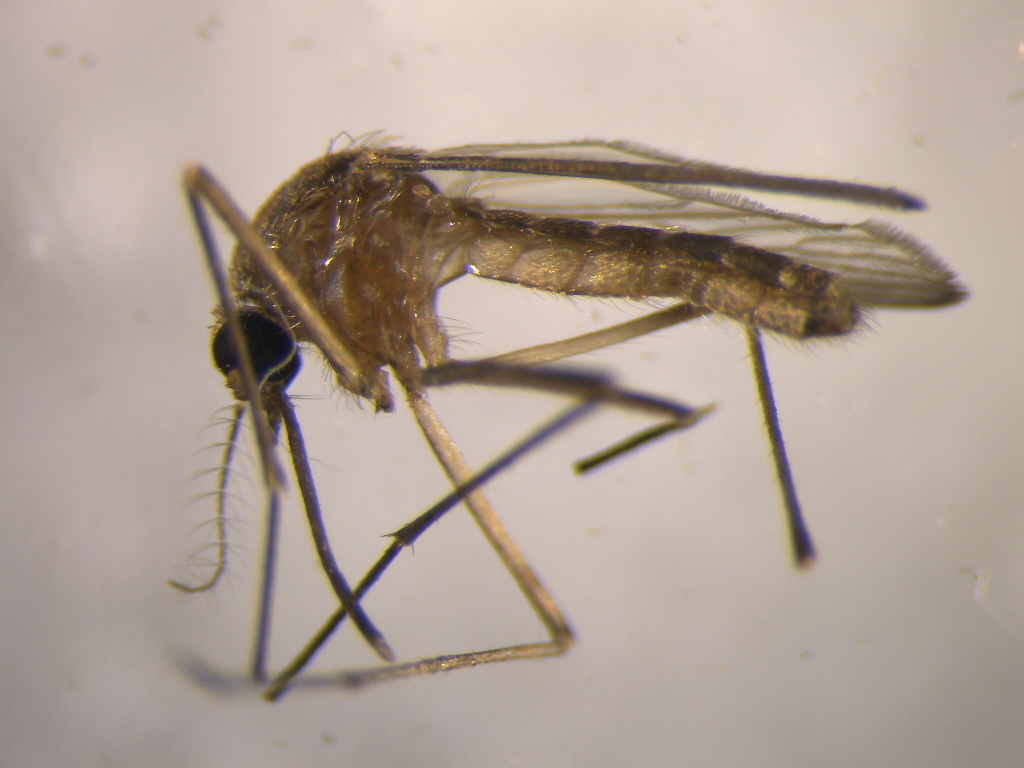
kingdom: Animalia
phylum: Arthropoda
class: Insecta
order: Diptera
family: Culicidae
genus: Culex
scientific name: Culex quinquefasciatus
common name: Southern house mosquito
